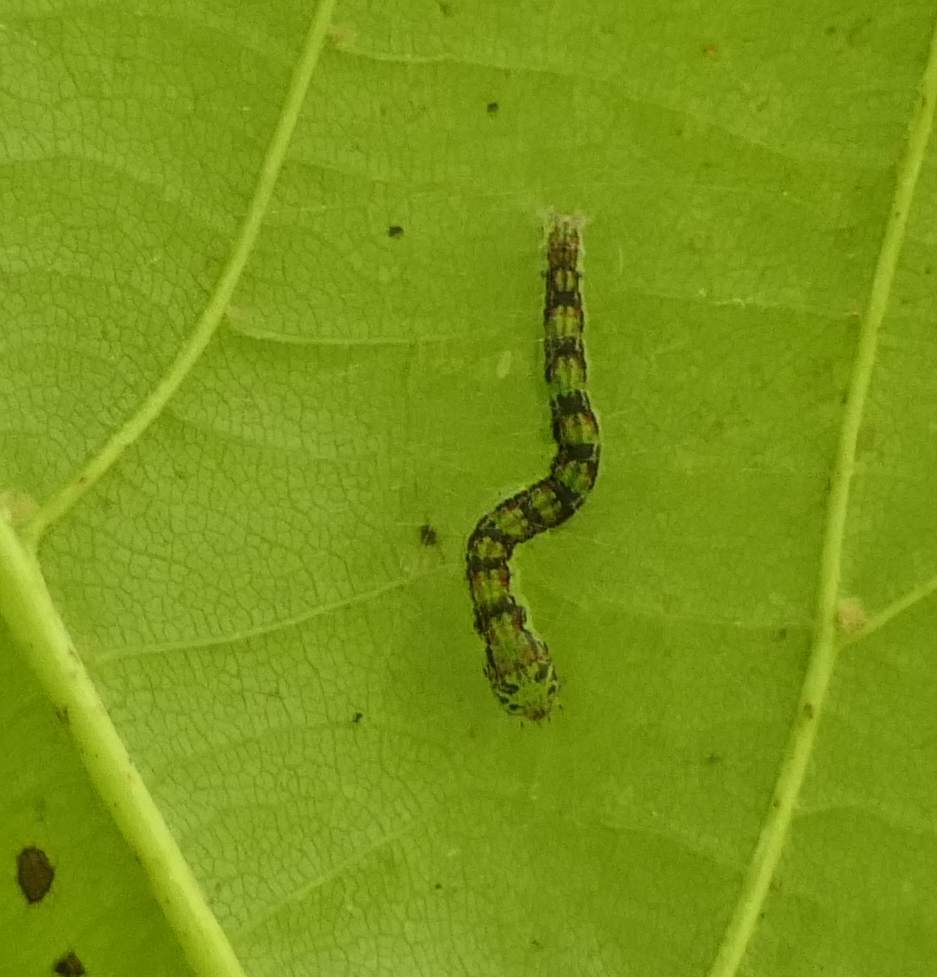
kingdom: Animalia
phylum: Arthropoda
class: Insecta
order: Lepidoptera
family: Pyralidae
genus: Oreana
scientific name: Oreana unicolorella
